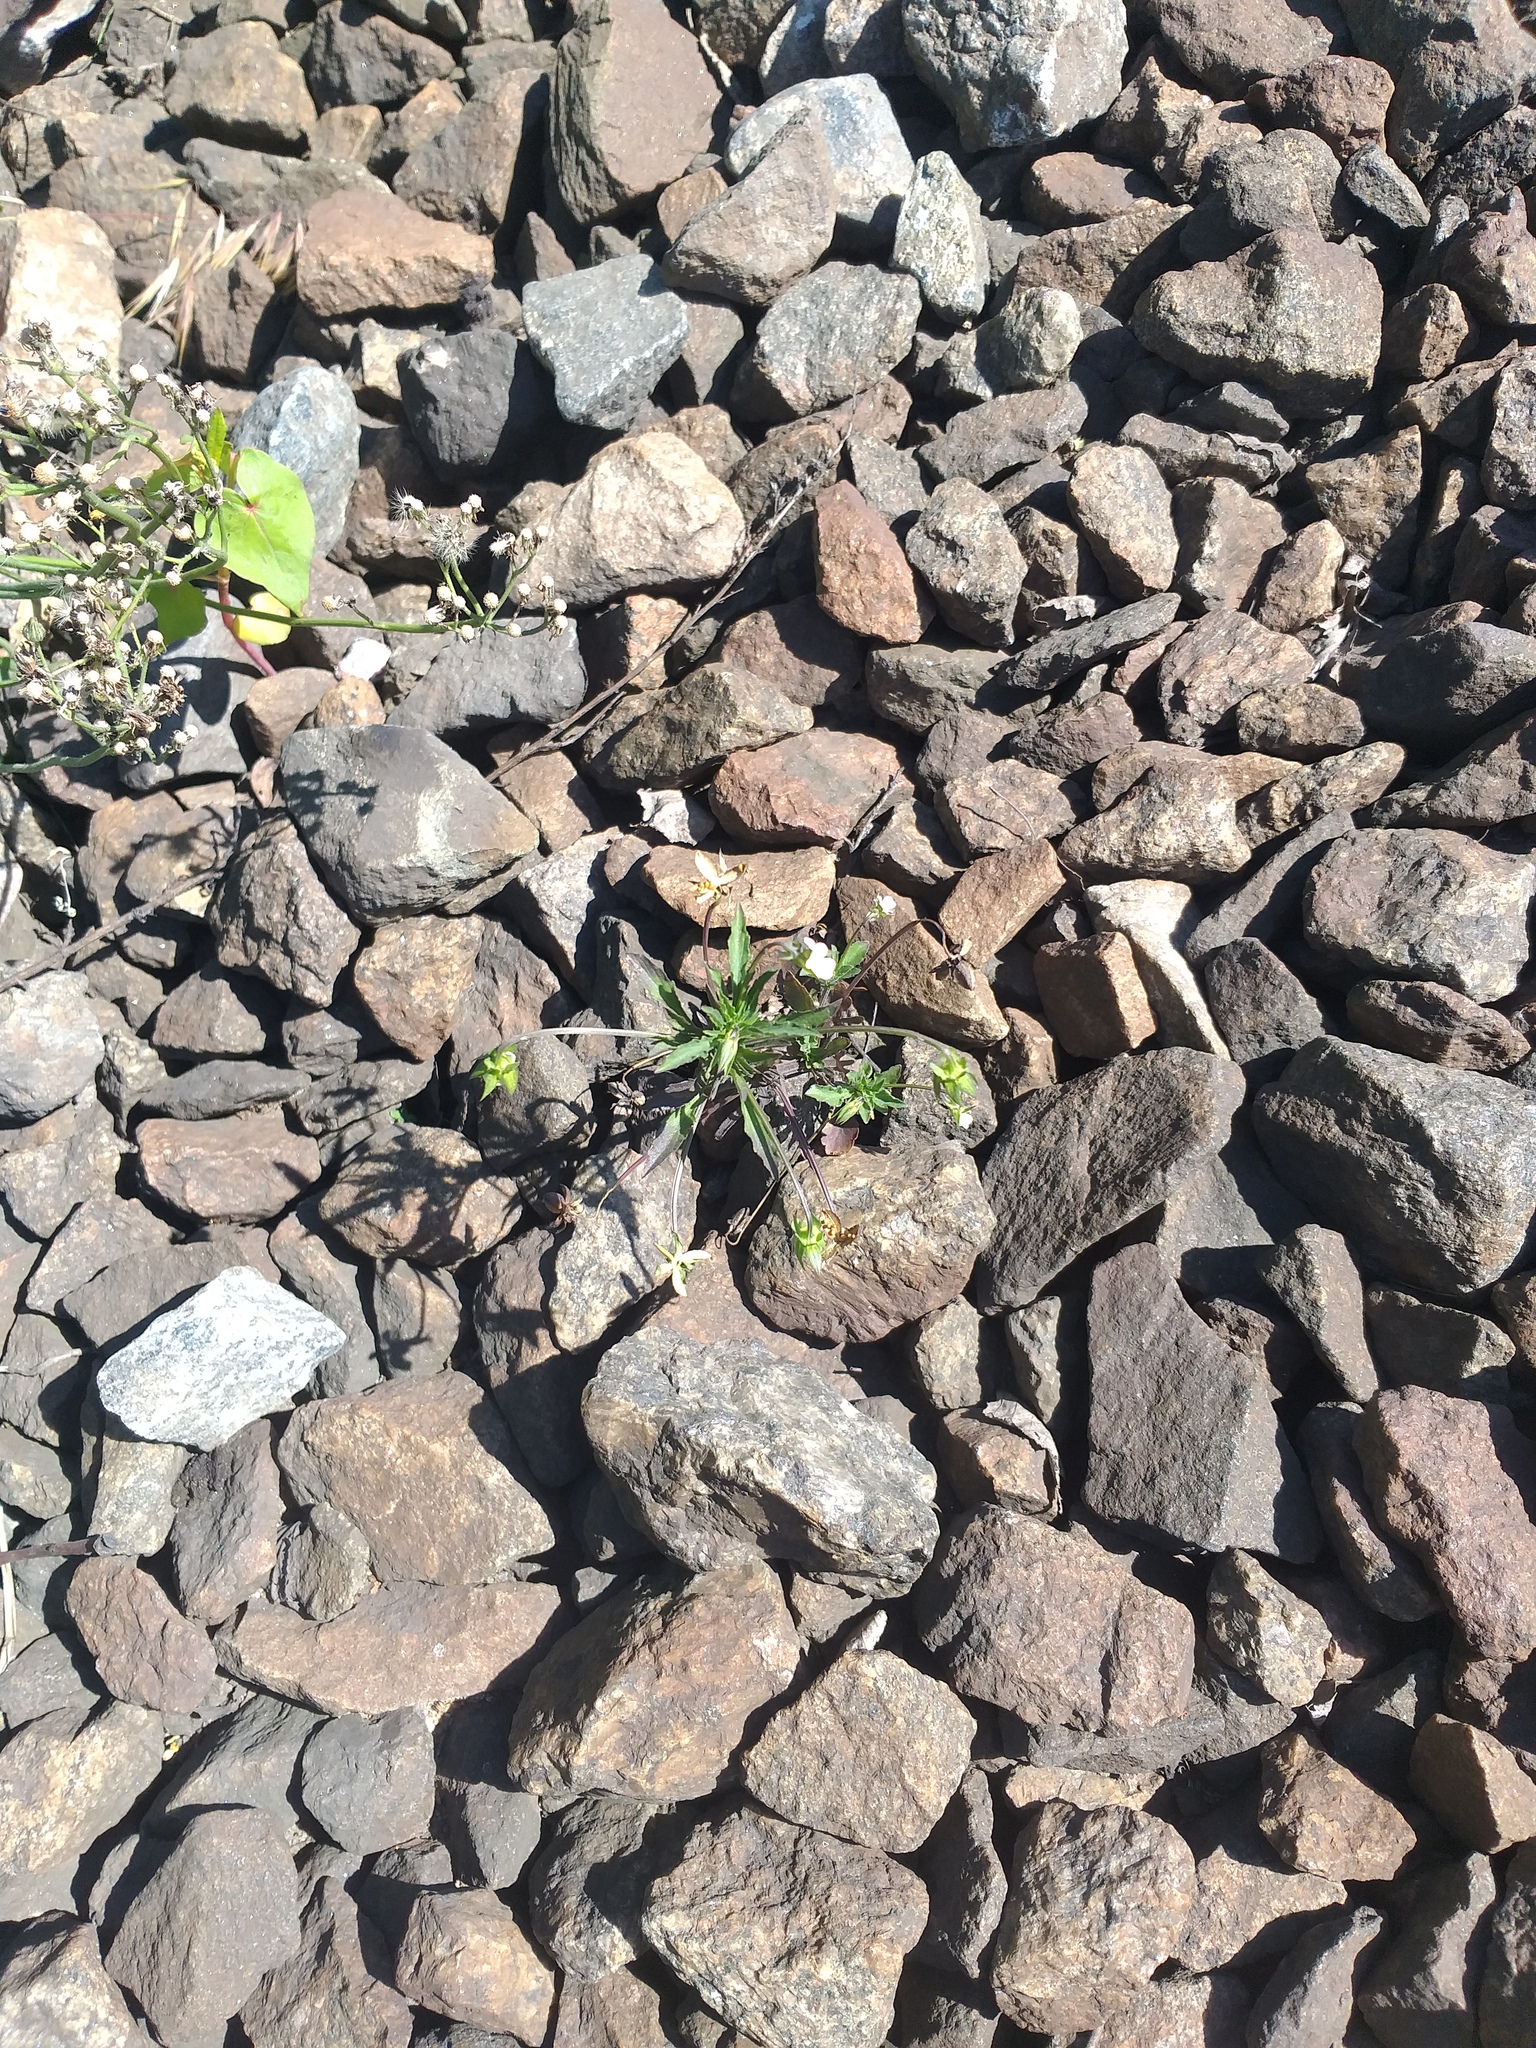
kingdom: Plantae
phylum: Tracheophyta
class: Magnoliopsida
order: Malpighiales
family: Violaceae
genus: Viola
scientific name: Viola arvensis
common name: Field pansy
